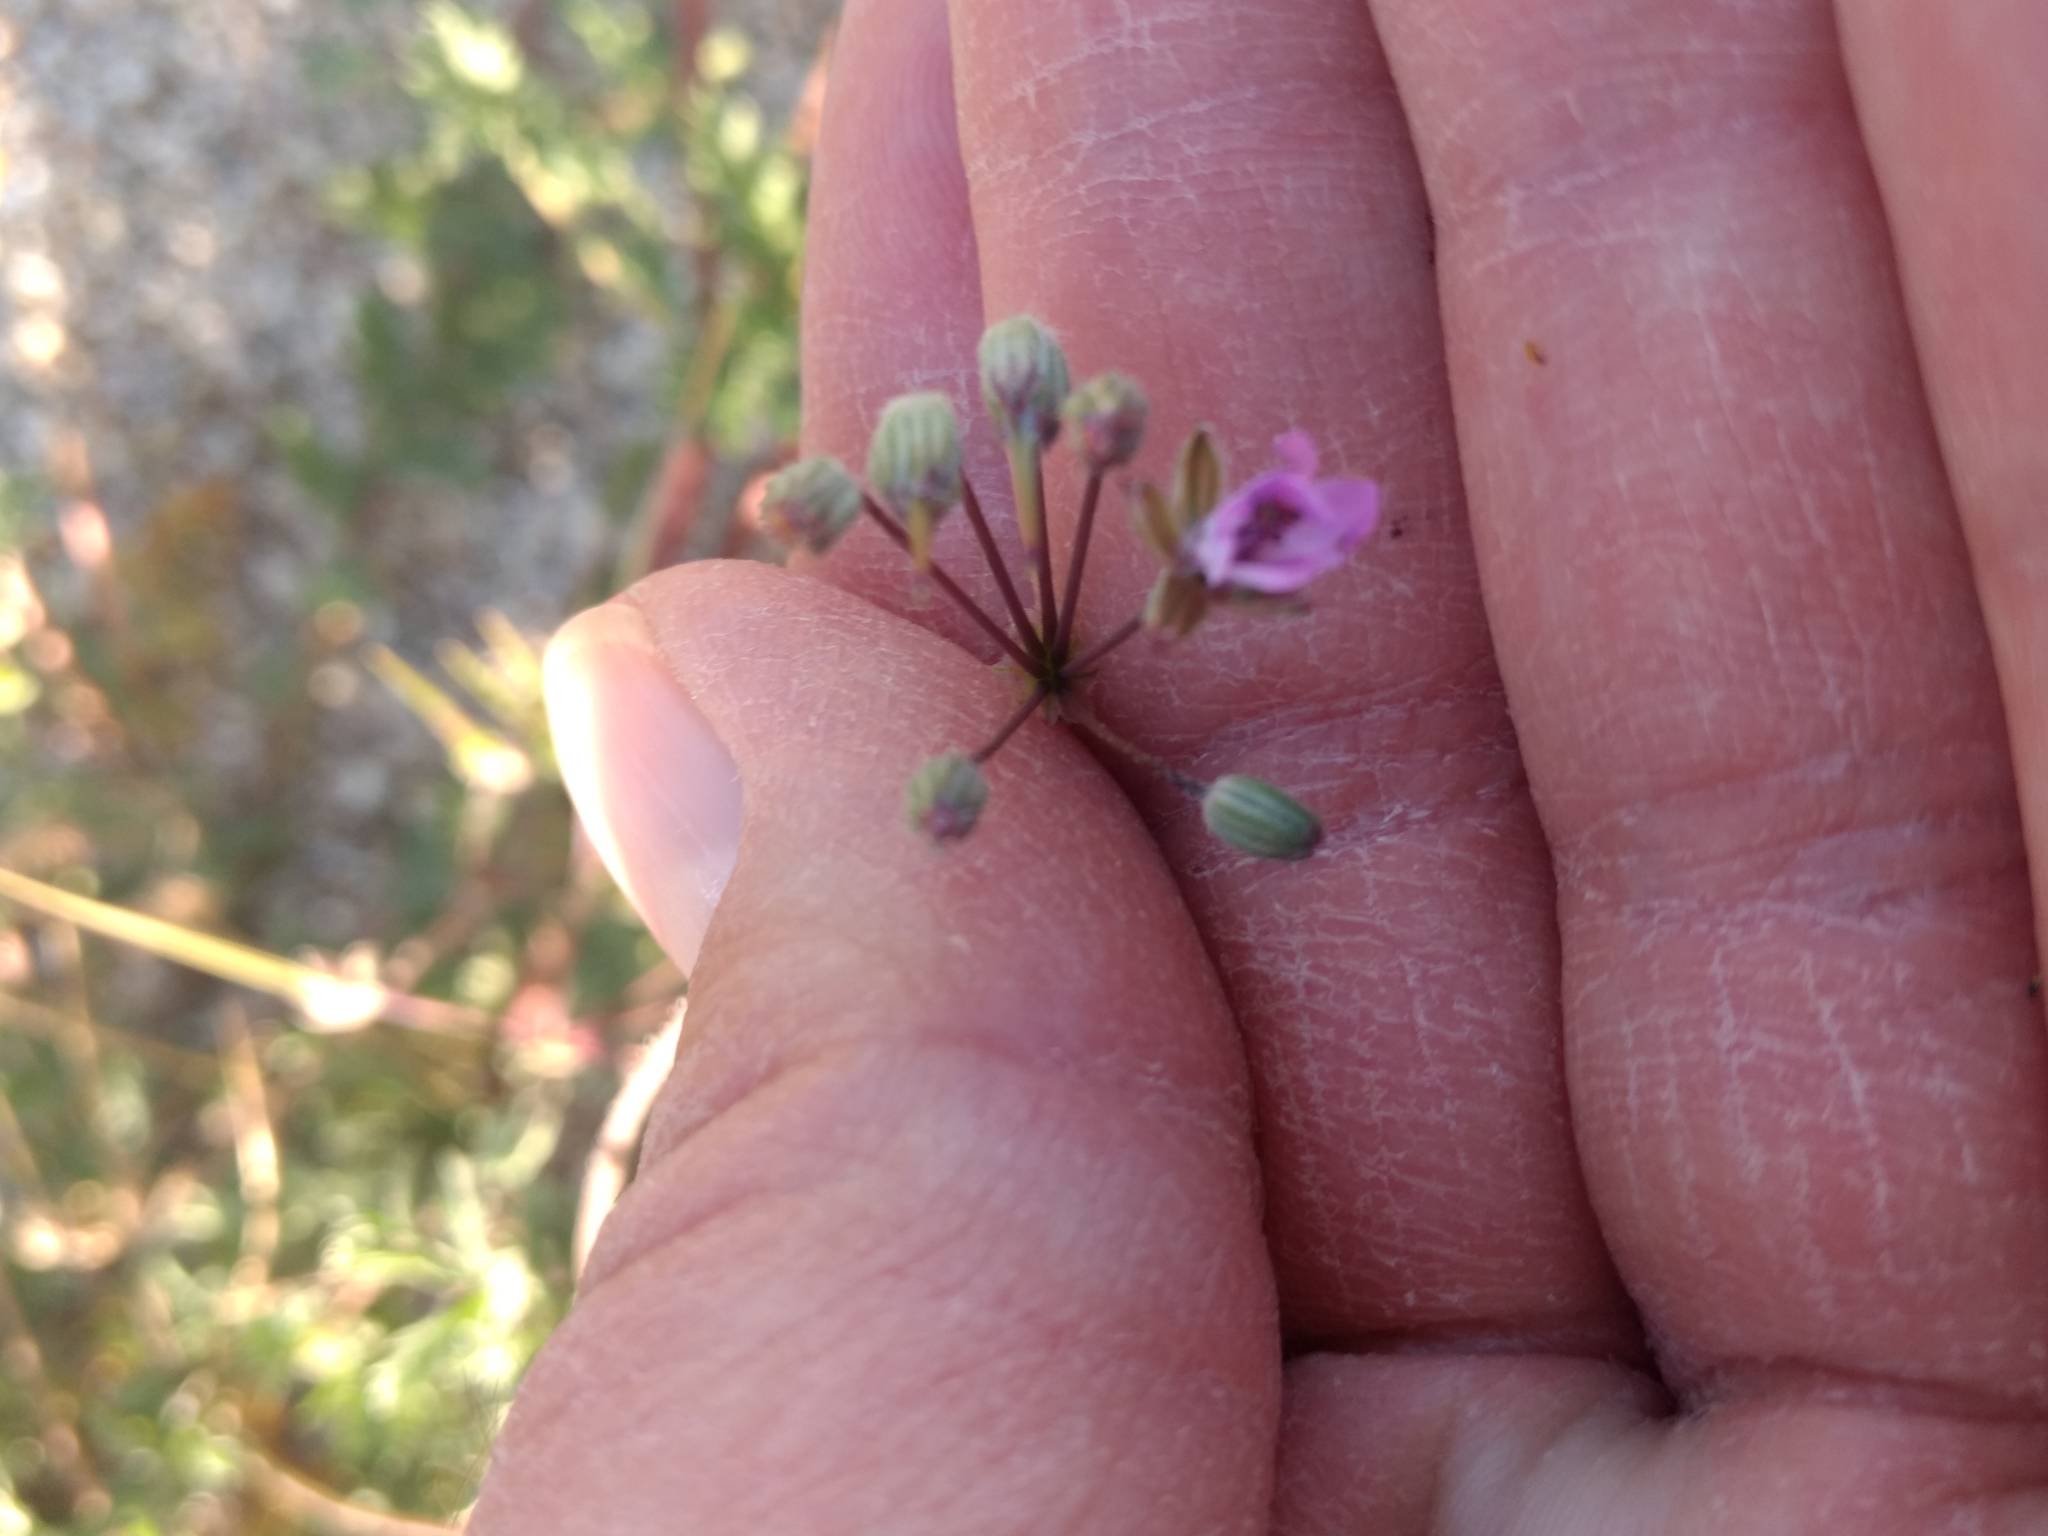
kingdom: Plantae
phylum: Tracheophyta
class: Magnoliopsida
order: Geraniales
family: Geraniaceae
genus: Erodium
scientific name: Erodium cicutarium
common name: Common stork's-bill
